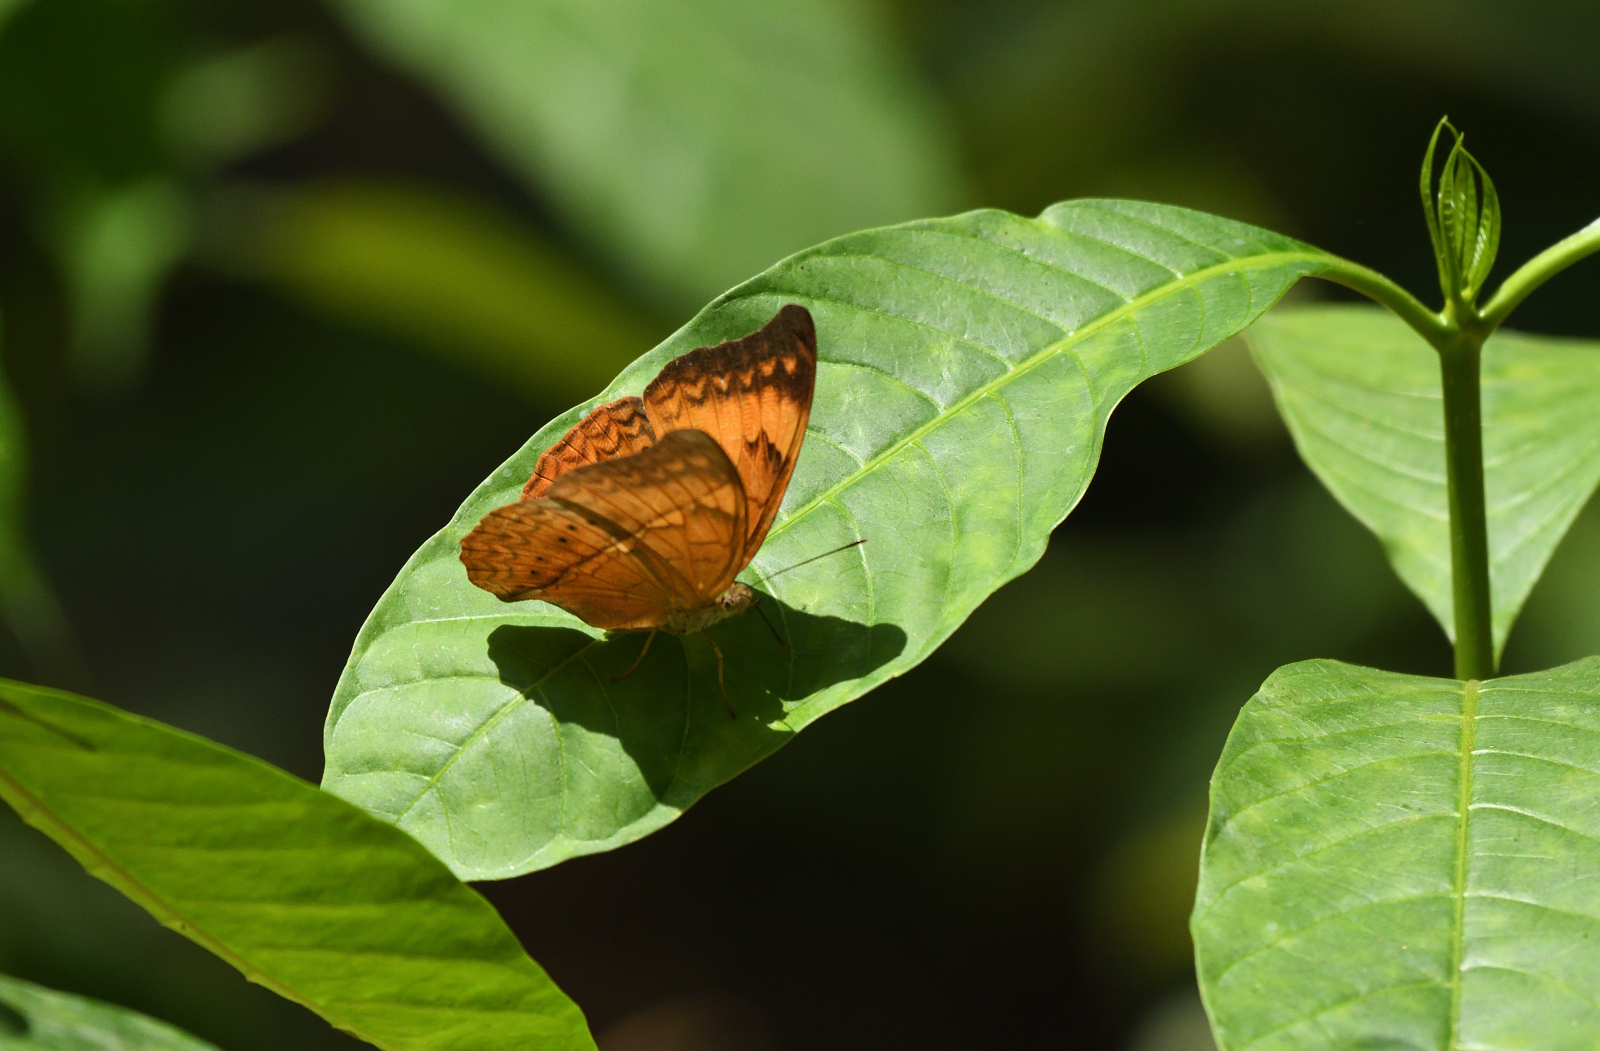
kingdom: Animalia
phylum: Arthropoda
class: Insecta
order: Lepidoptera
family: Nymphalidae
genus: Cirrochroa
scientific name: Cirrochroa thais
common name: Tamil yeoman
